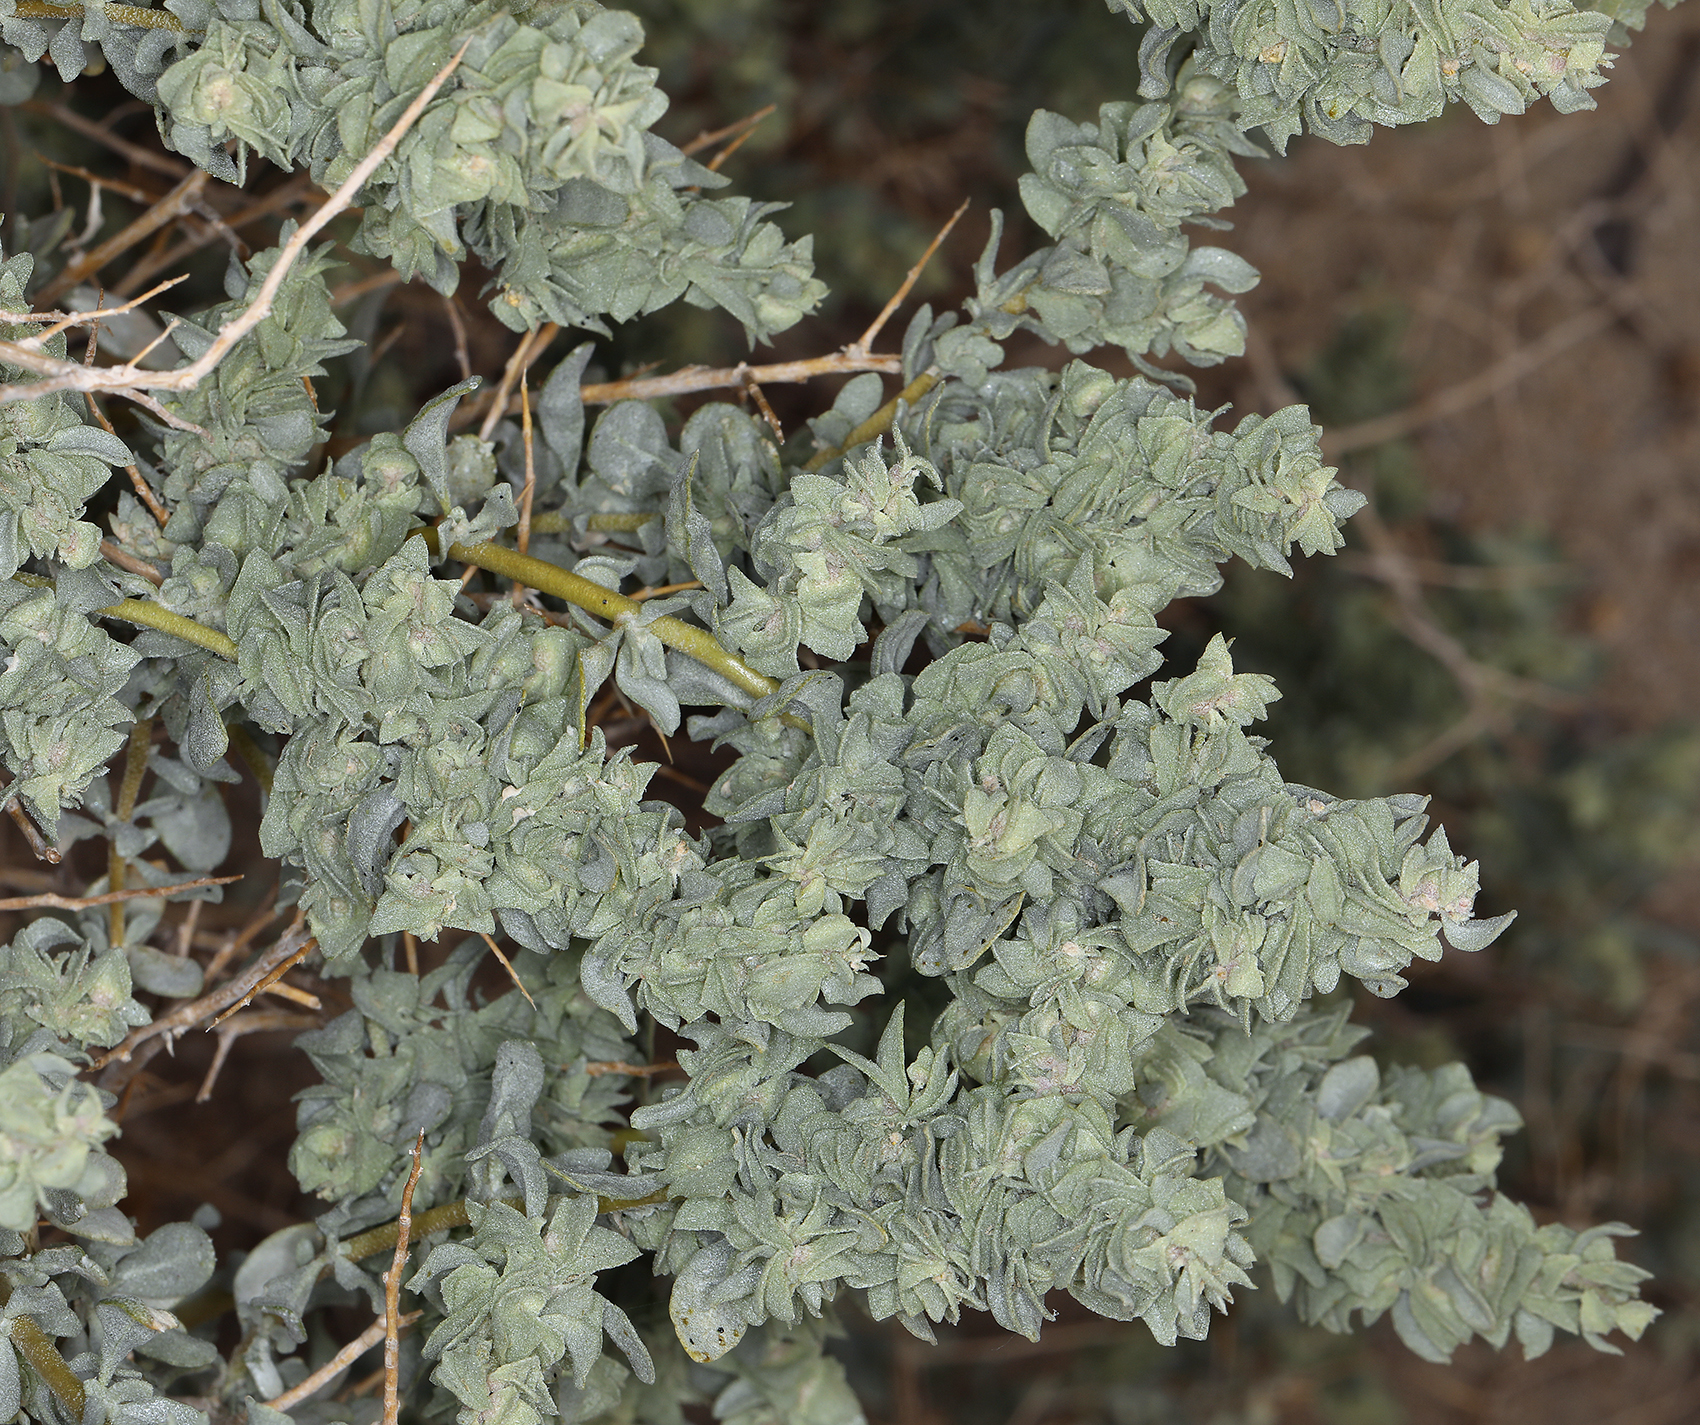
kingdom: Plantae
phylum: Tracheophyta
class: Magnoliopsida
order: Caryophyllales
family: Amaranthaceae
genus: Atriplex
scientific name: Atriplex confertifolia
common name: Shadscale
